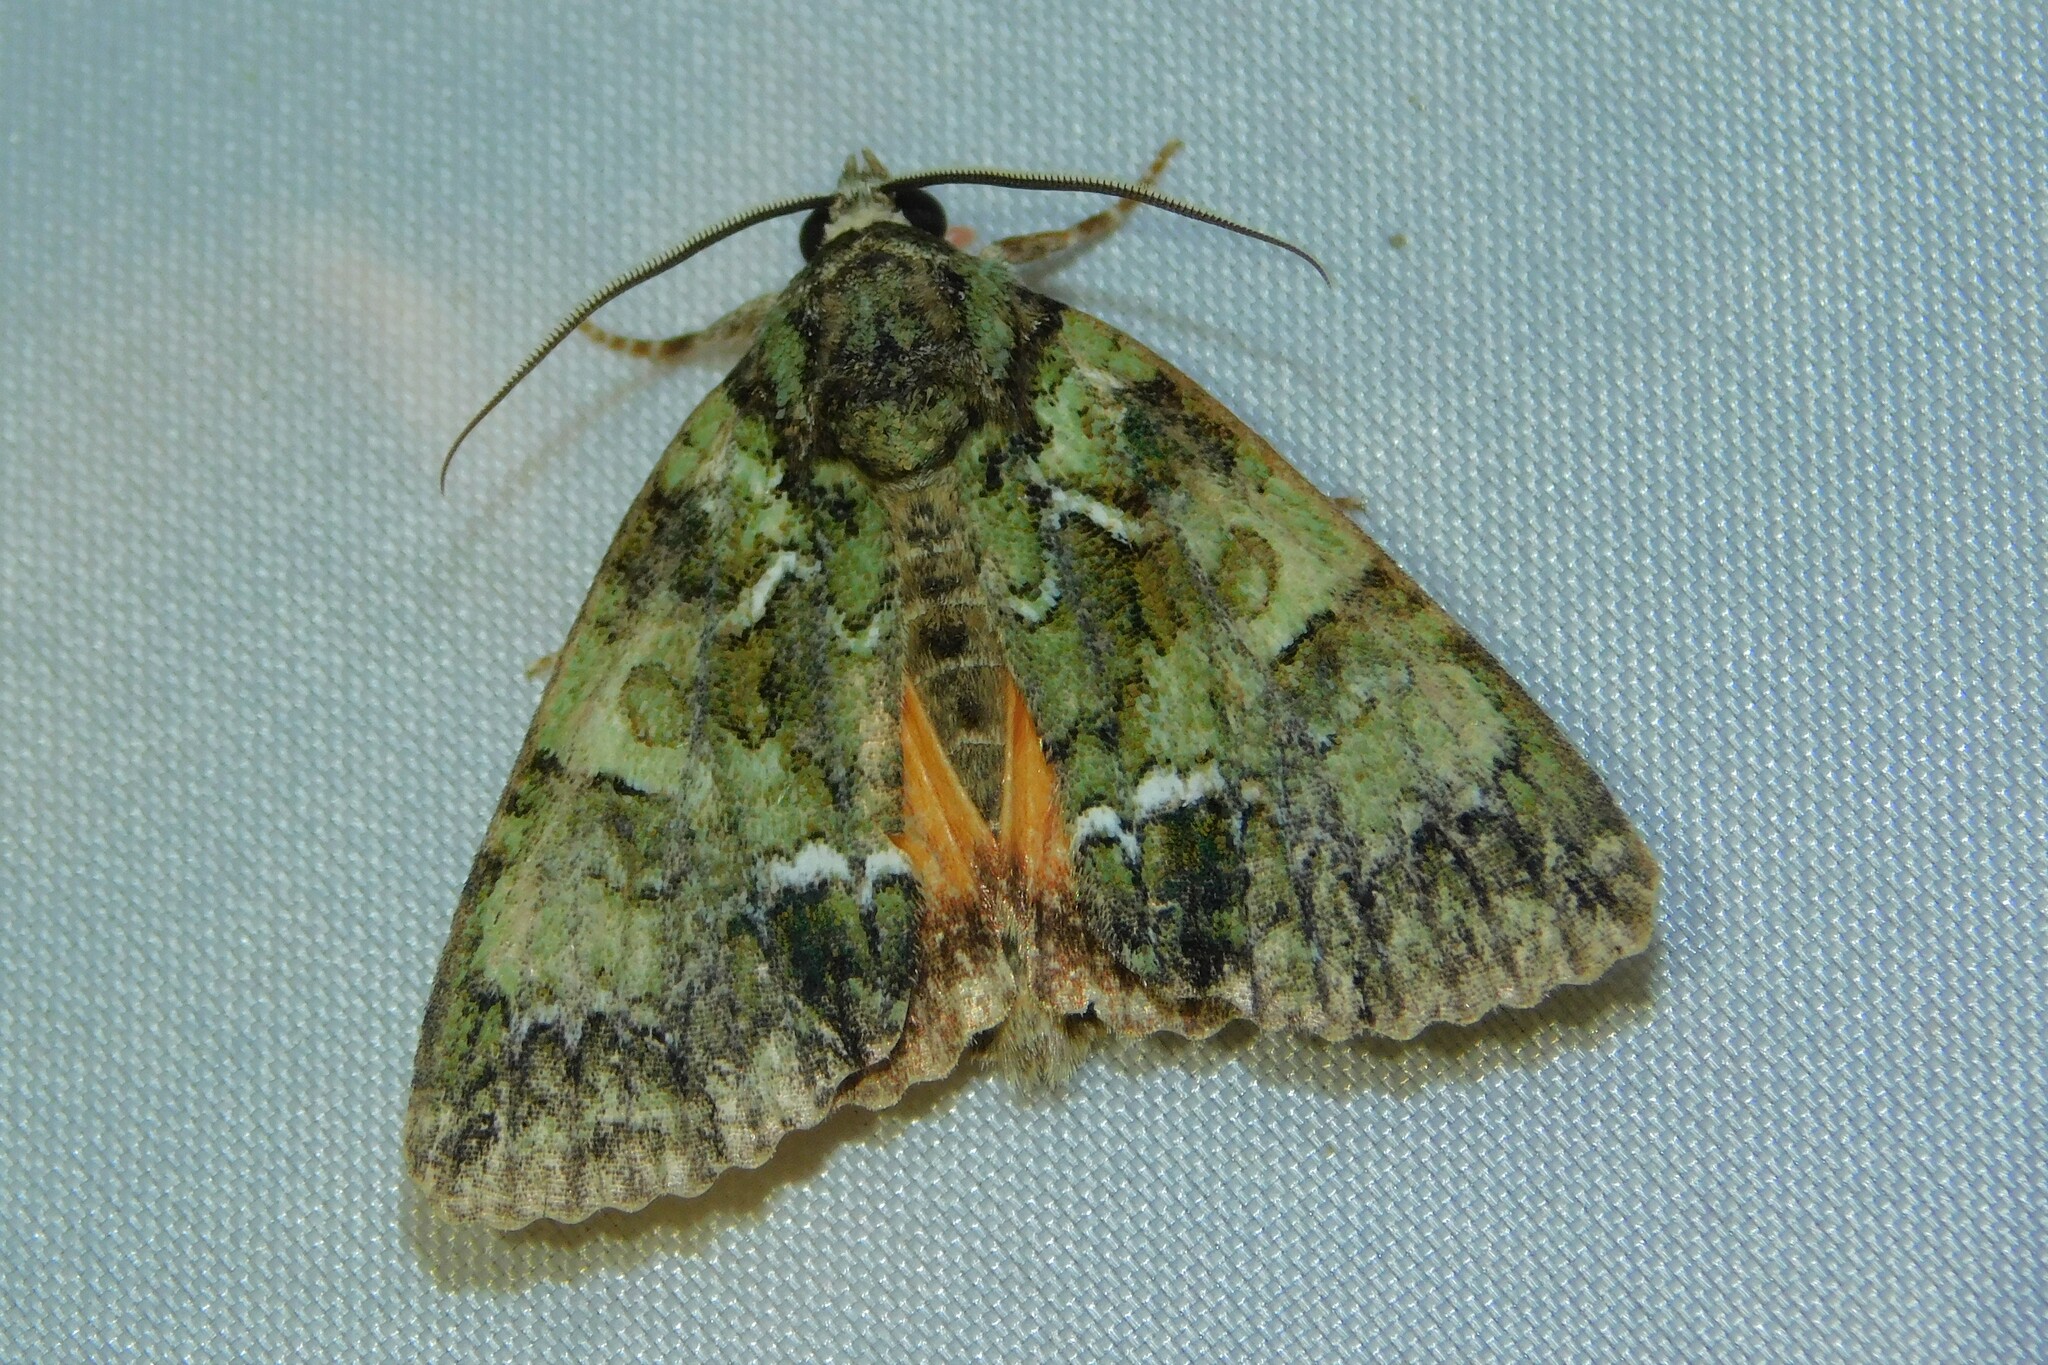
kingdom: Animalia
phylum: Arthropoda
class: Insecta
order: Lepidoptera
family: Noctuidae
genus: Polyphaenis
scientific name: Polyphaenis sericata
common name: Guernsey underwing
